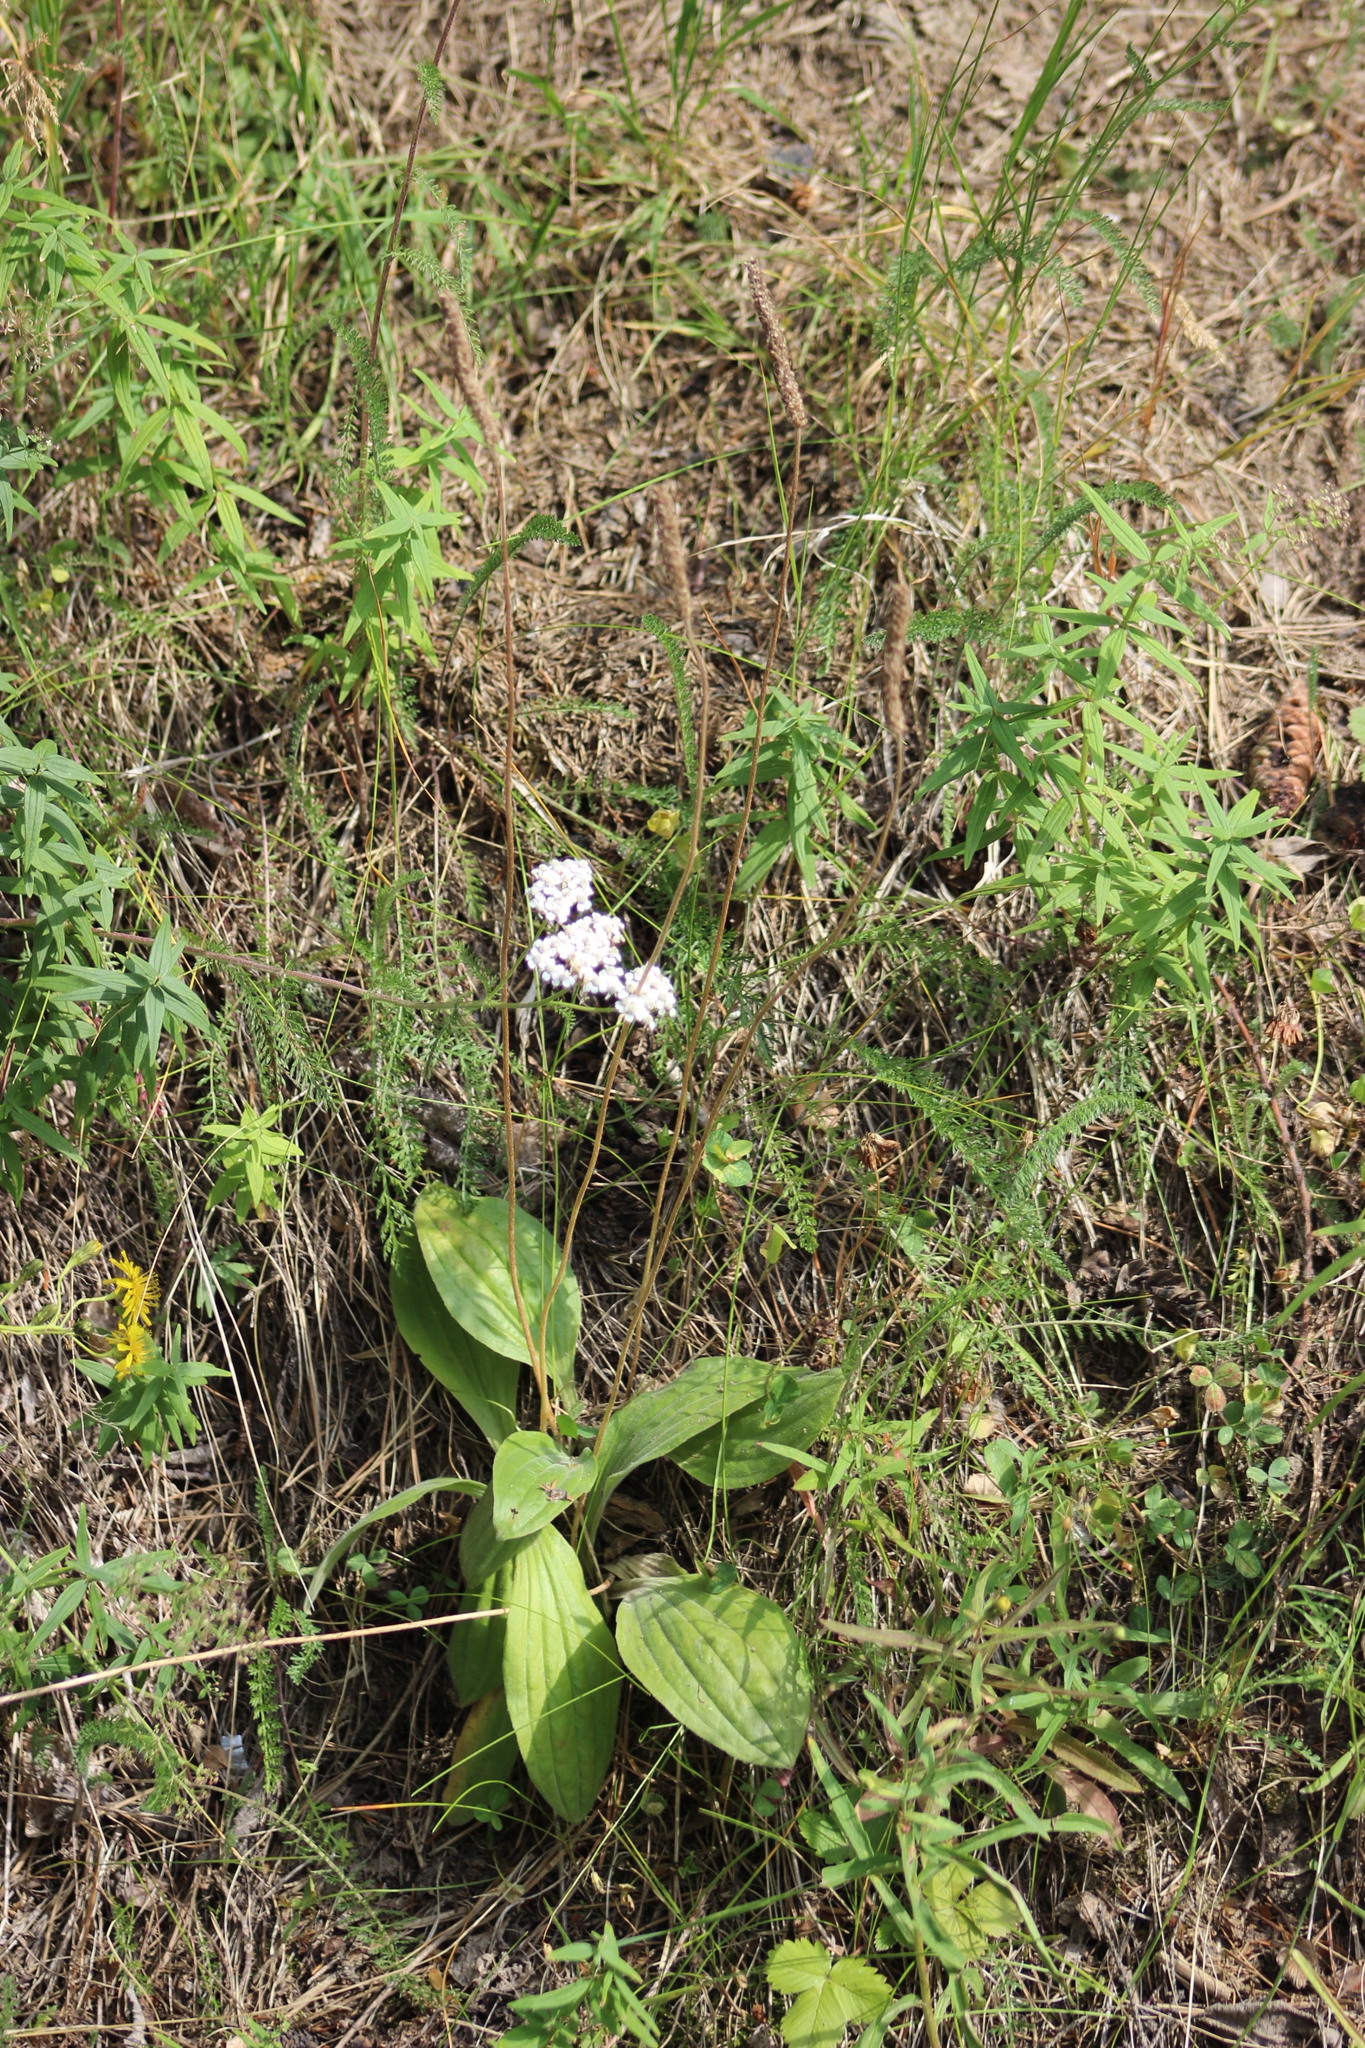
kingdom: Plantae
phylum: Tracheophyta
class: Magnoliopsida
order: Lamiales
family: Plantaginaceae
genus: Plantago
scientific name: Plantago media
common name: Hoary plantain
